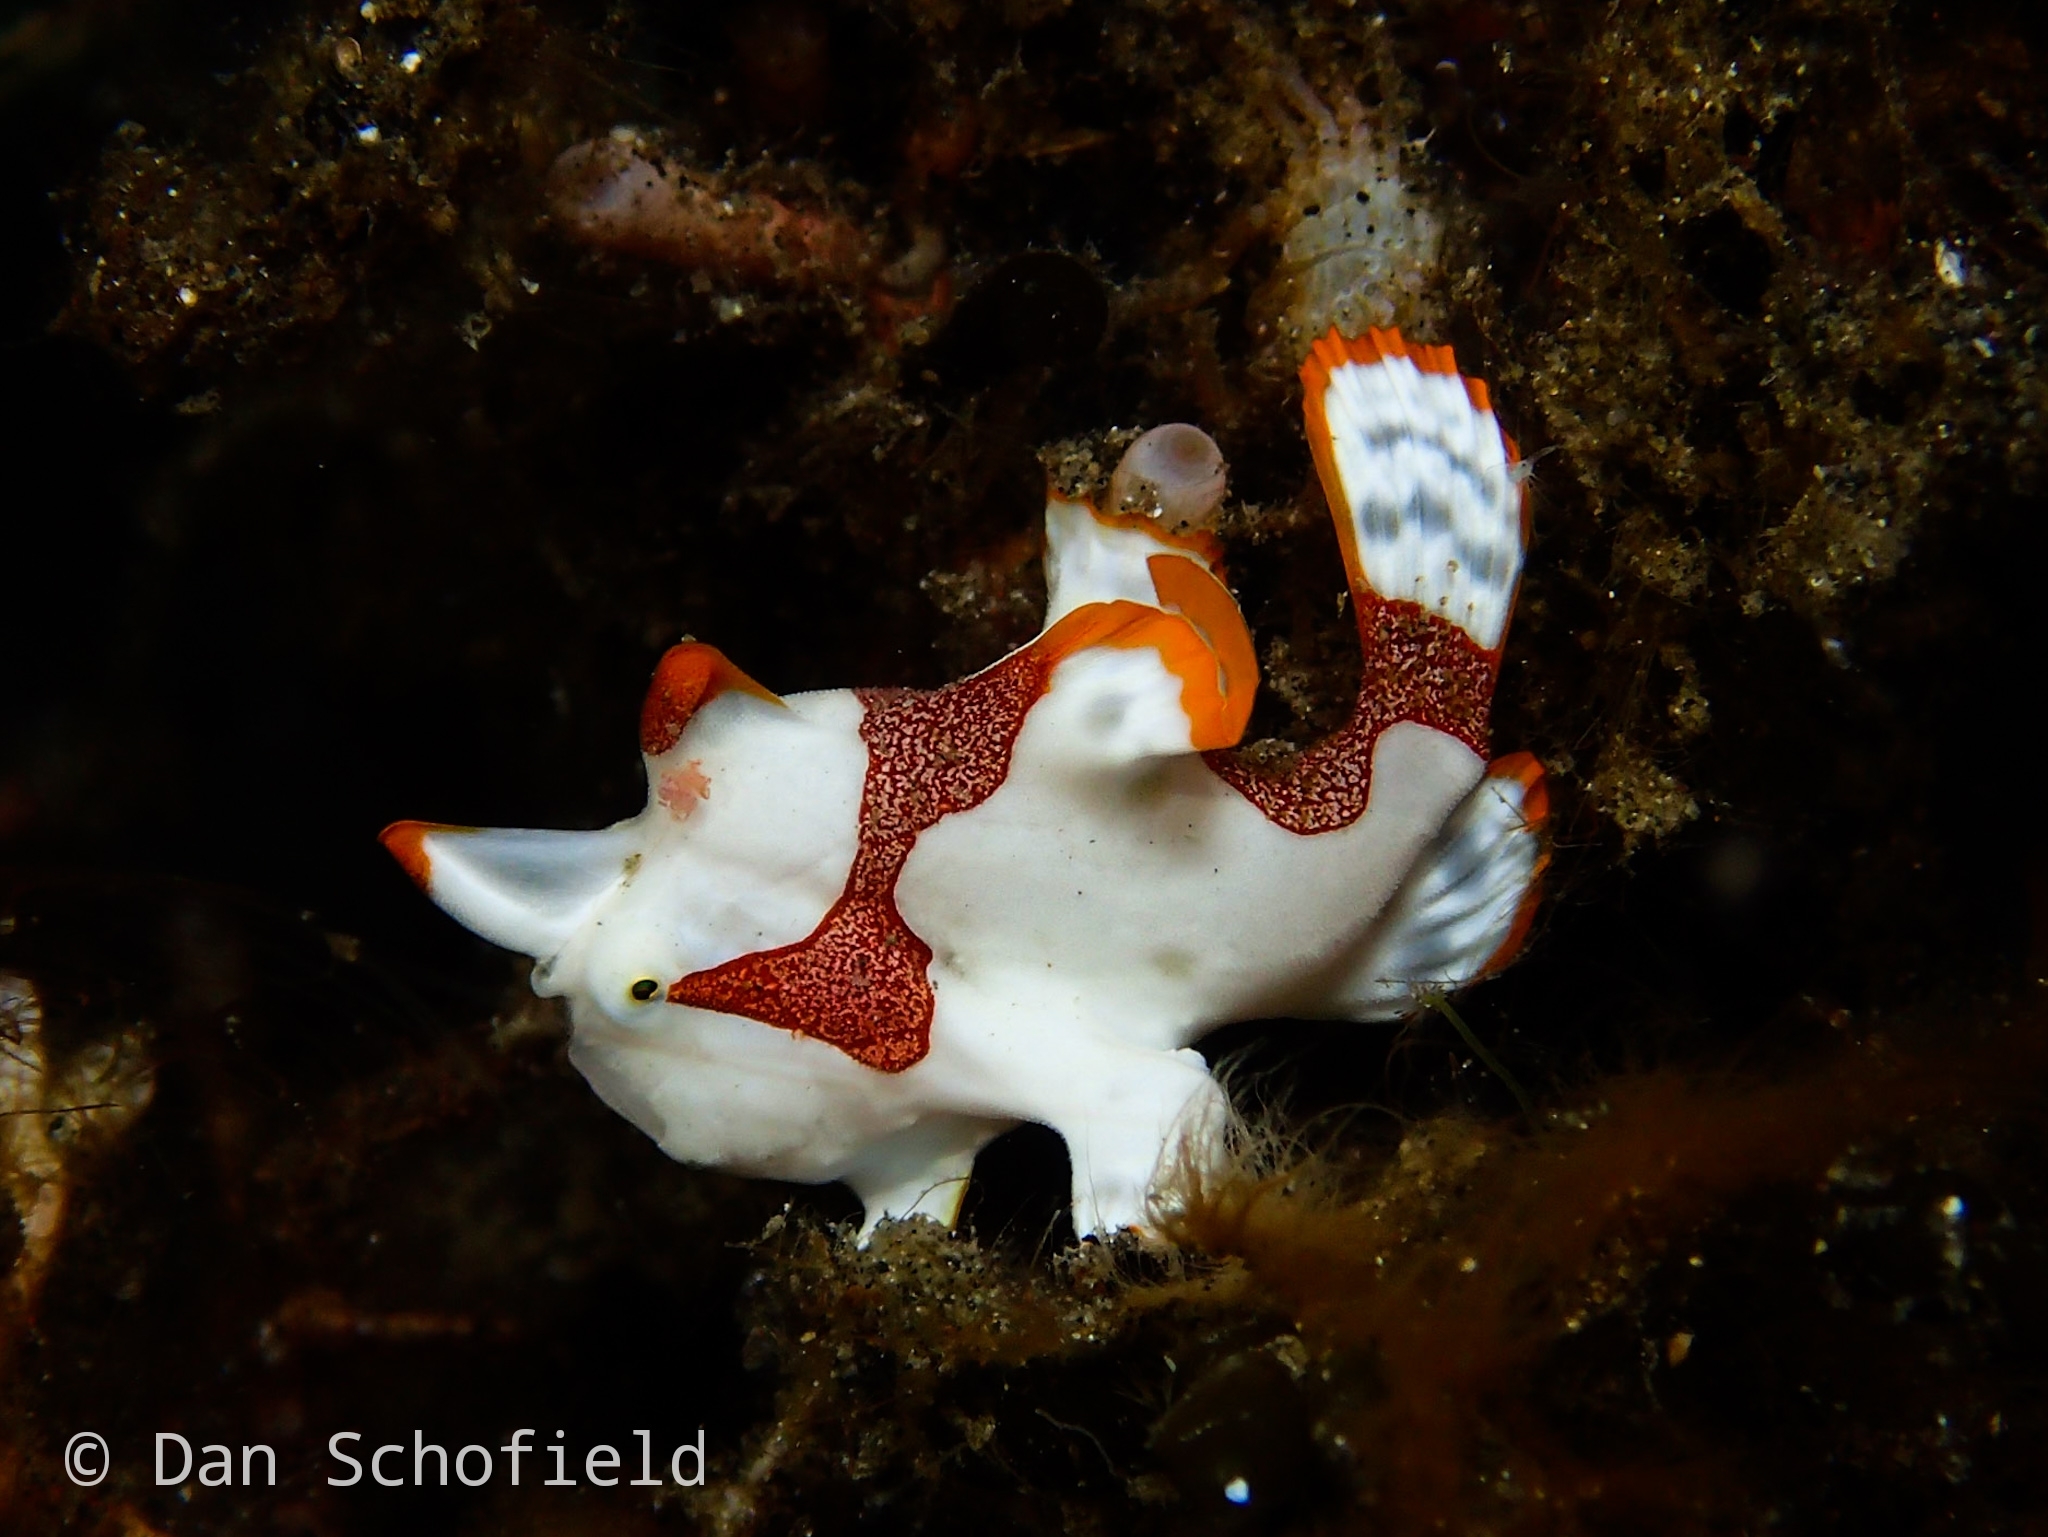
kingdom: Animalia
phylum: Chordata
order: Lophiiformes
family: Antennariidae
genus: Antennarius
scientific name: Antennarius maculatus
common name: Warty frogfish
